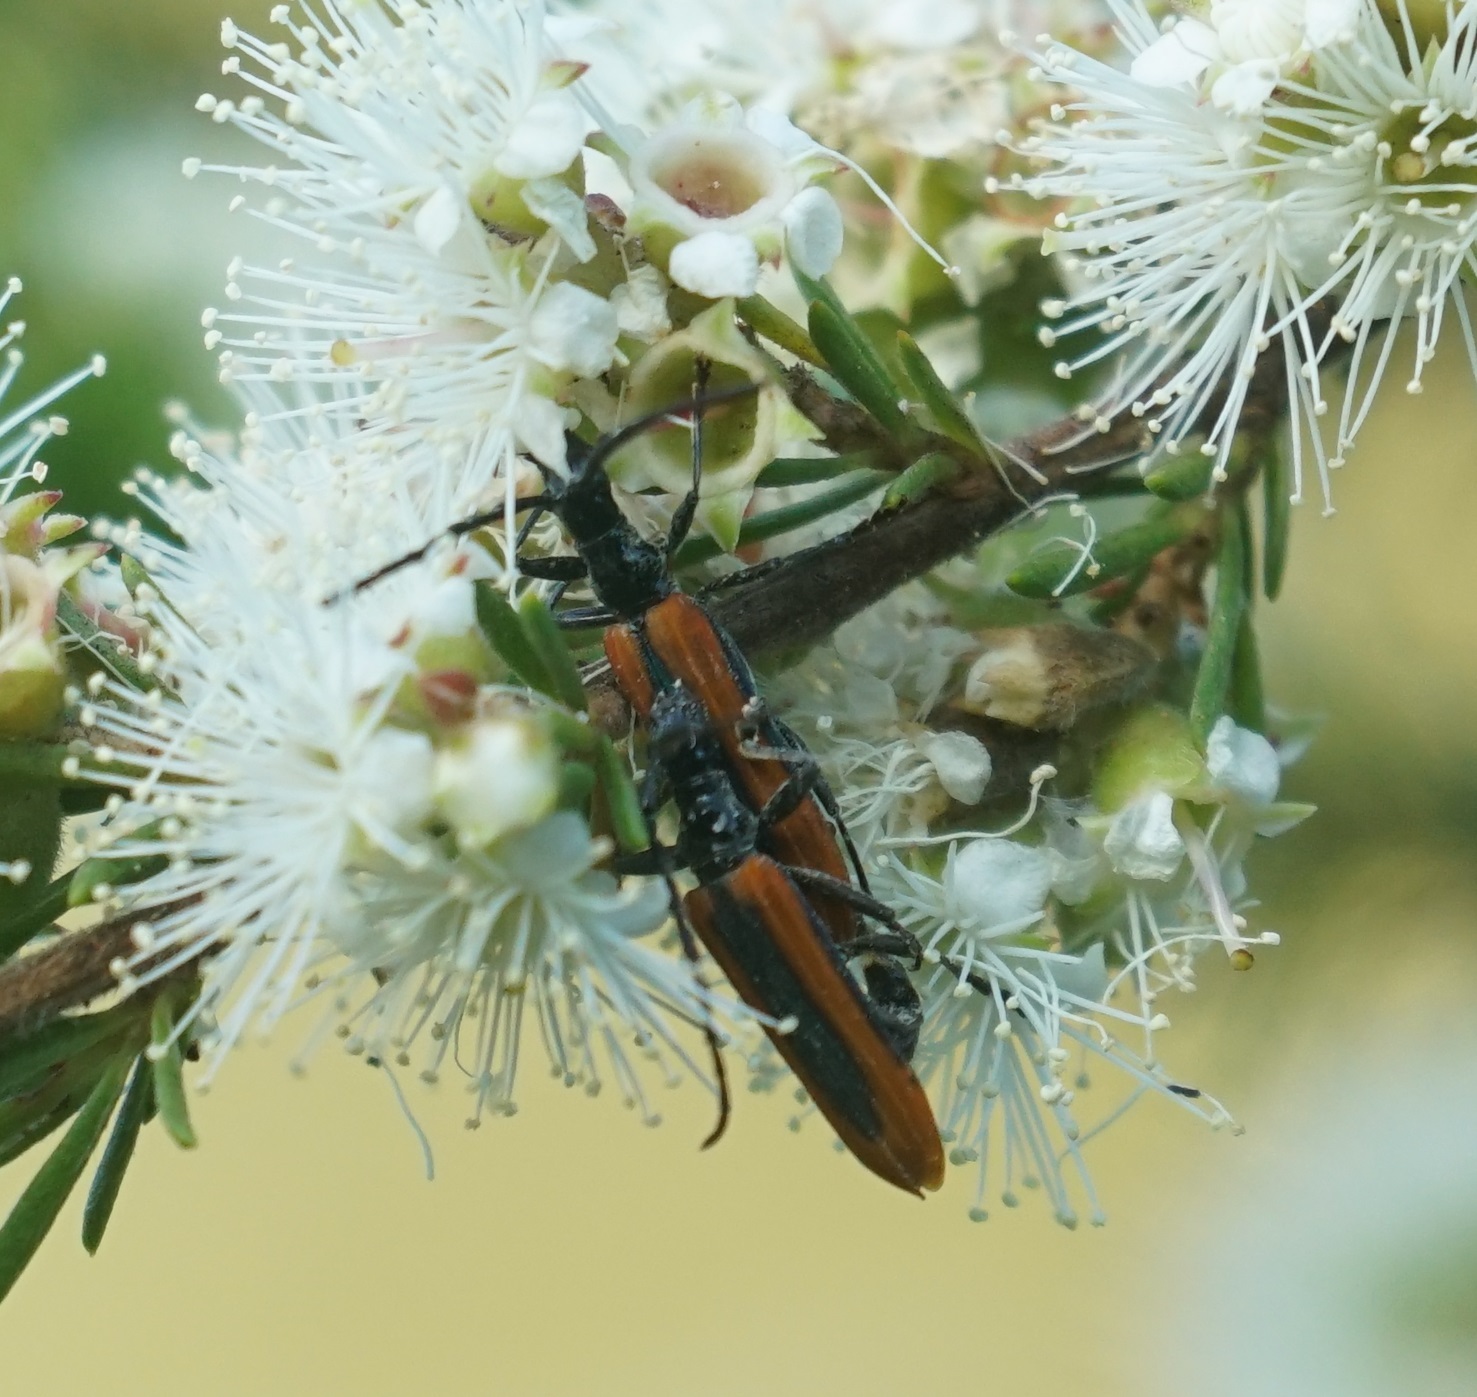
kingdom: Animalia
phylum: Arthropoda
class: Insecta
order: Coleoptera
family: Cerambycidae
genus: Stenoderus
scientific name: Stenoderus suturalis
